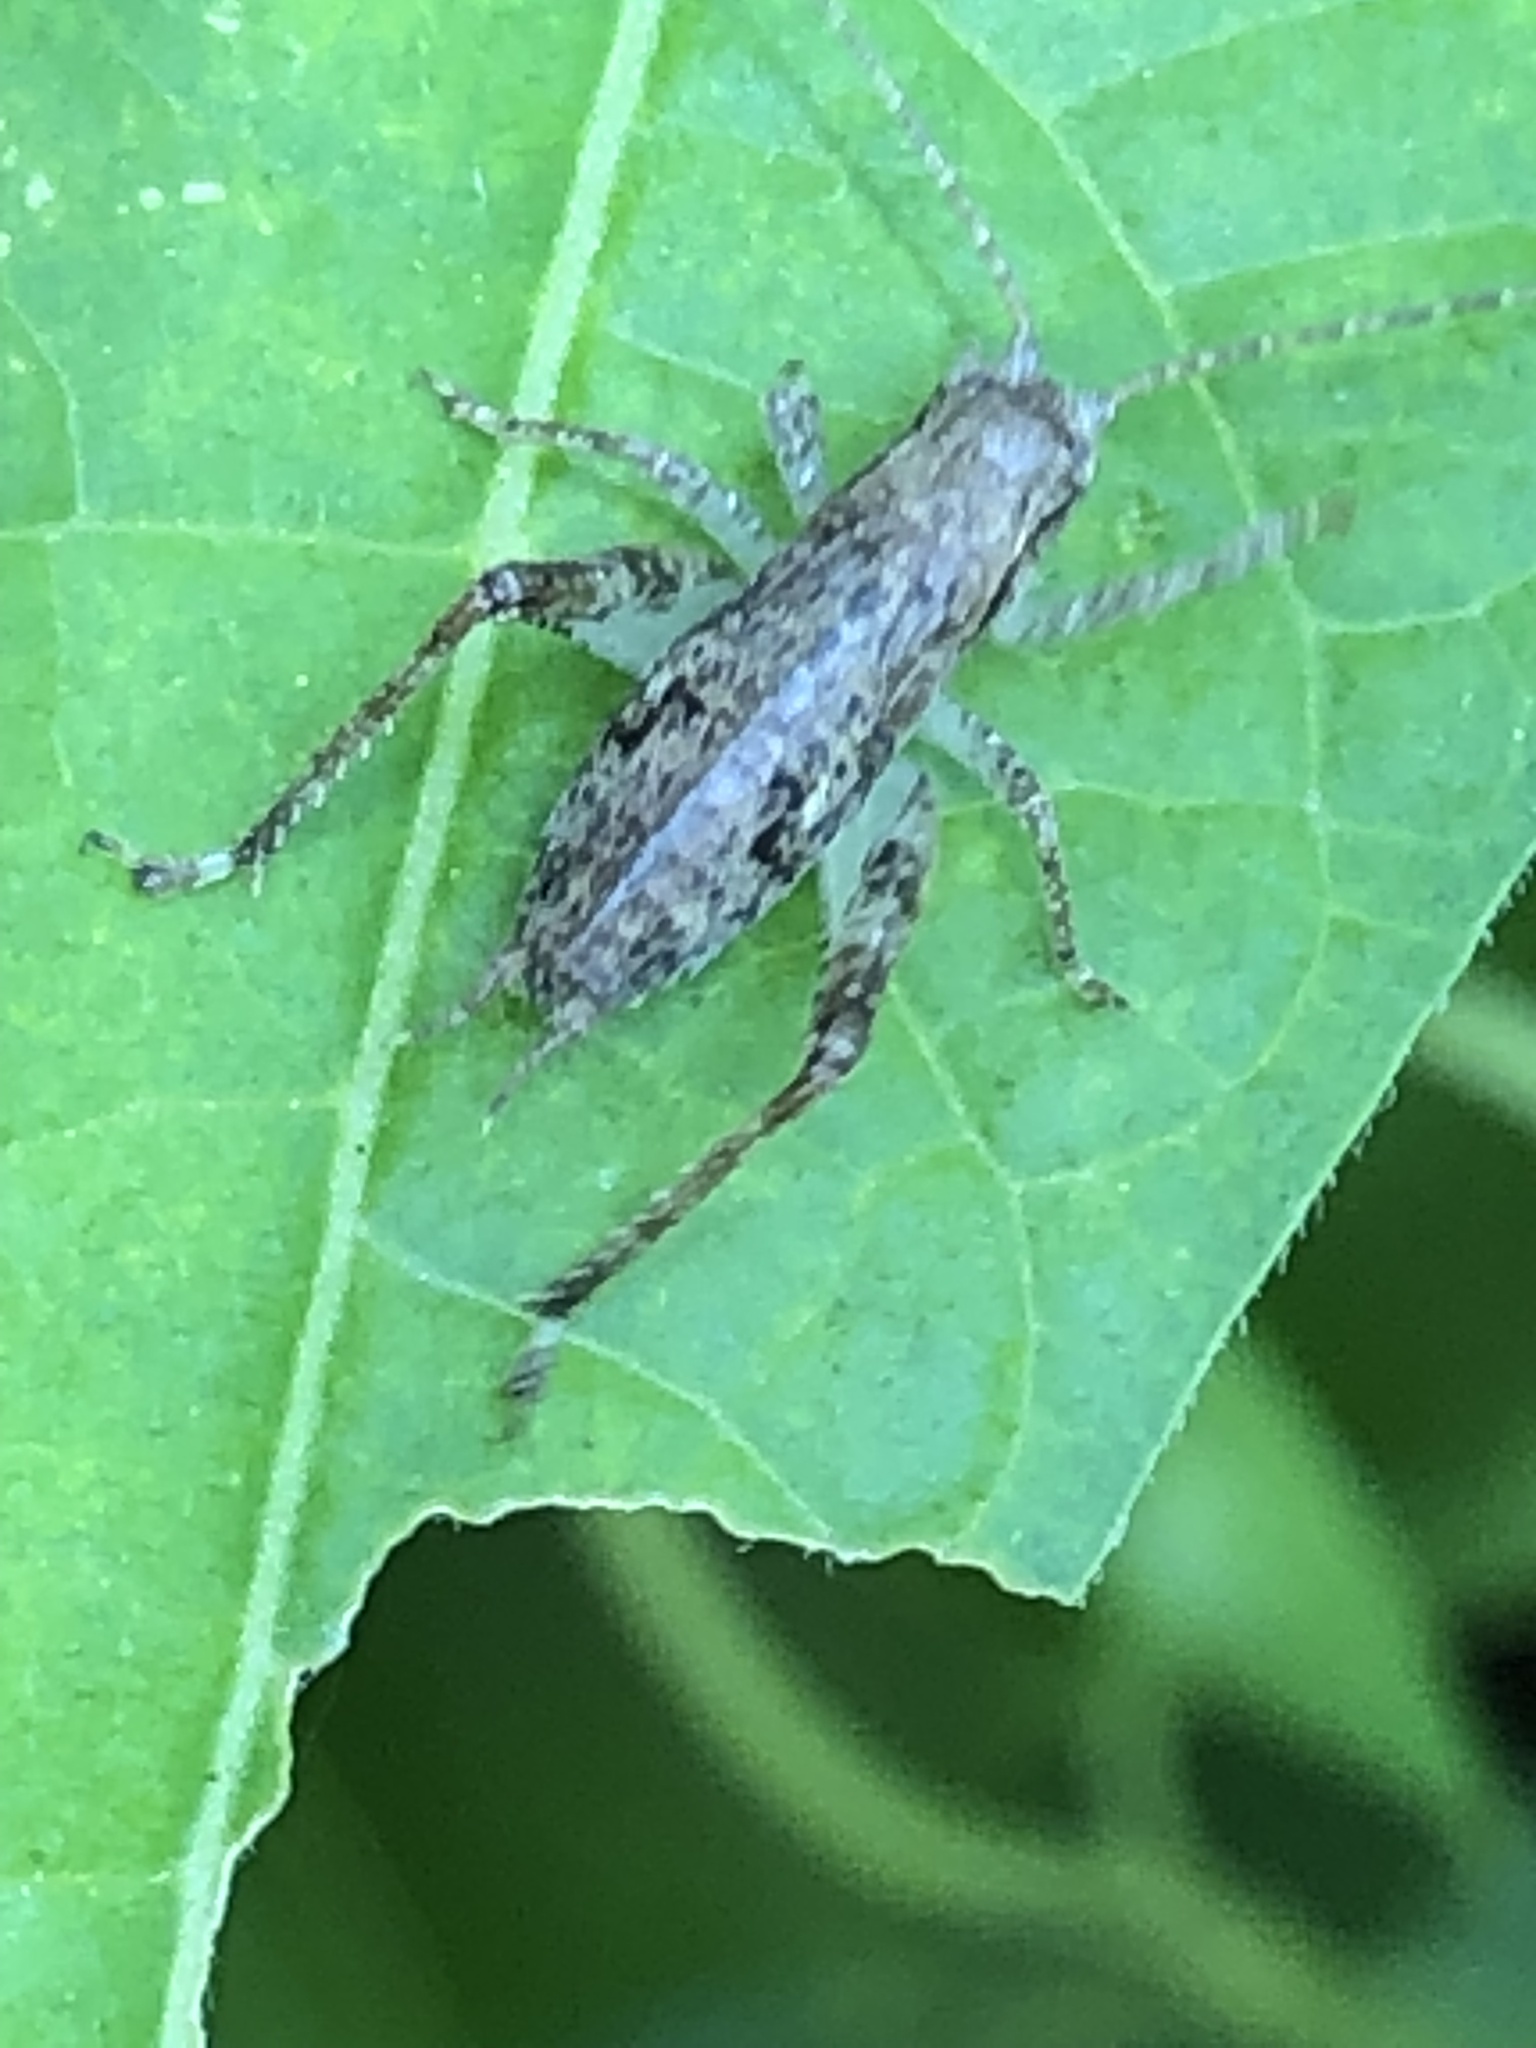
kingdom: Animalia
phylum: Arthropoda
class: Insecta
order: Orthoptera
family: Gryllidae
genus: Hapithus
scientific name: Hapithus saltator
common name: Jumping bush cricket
